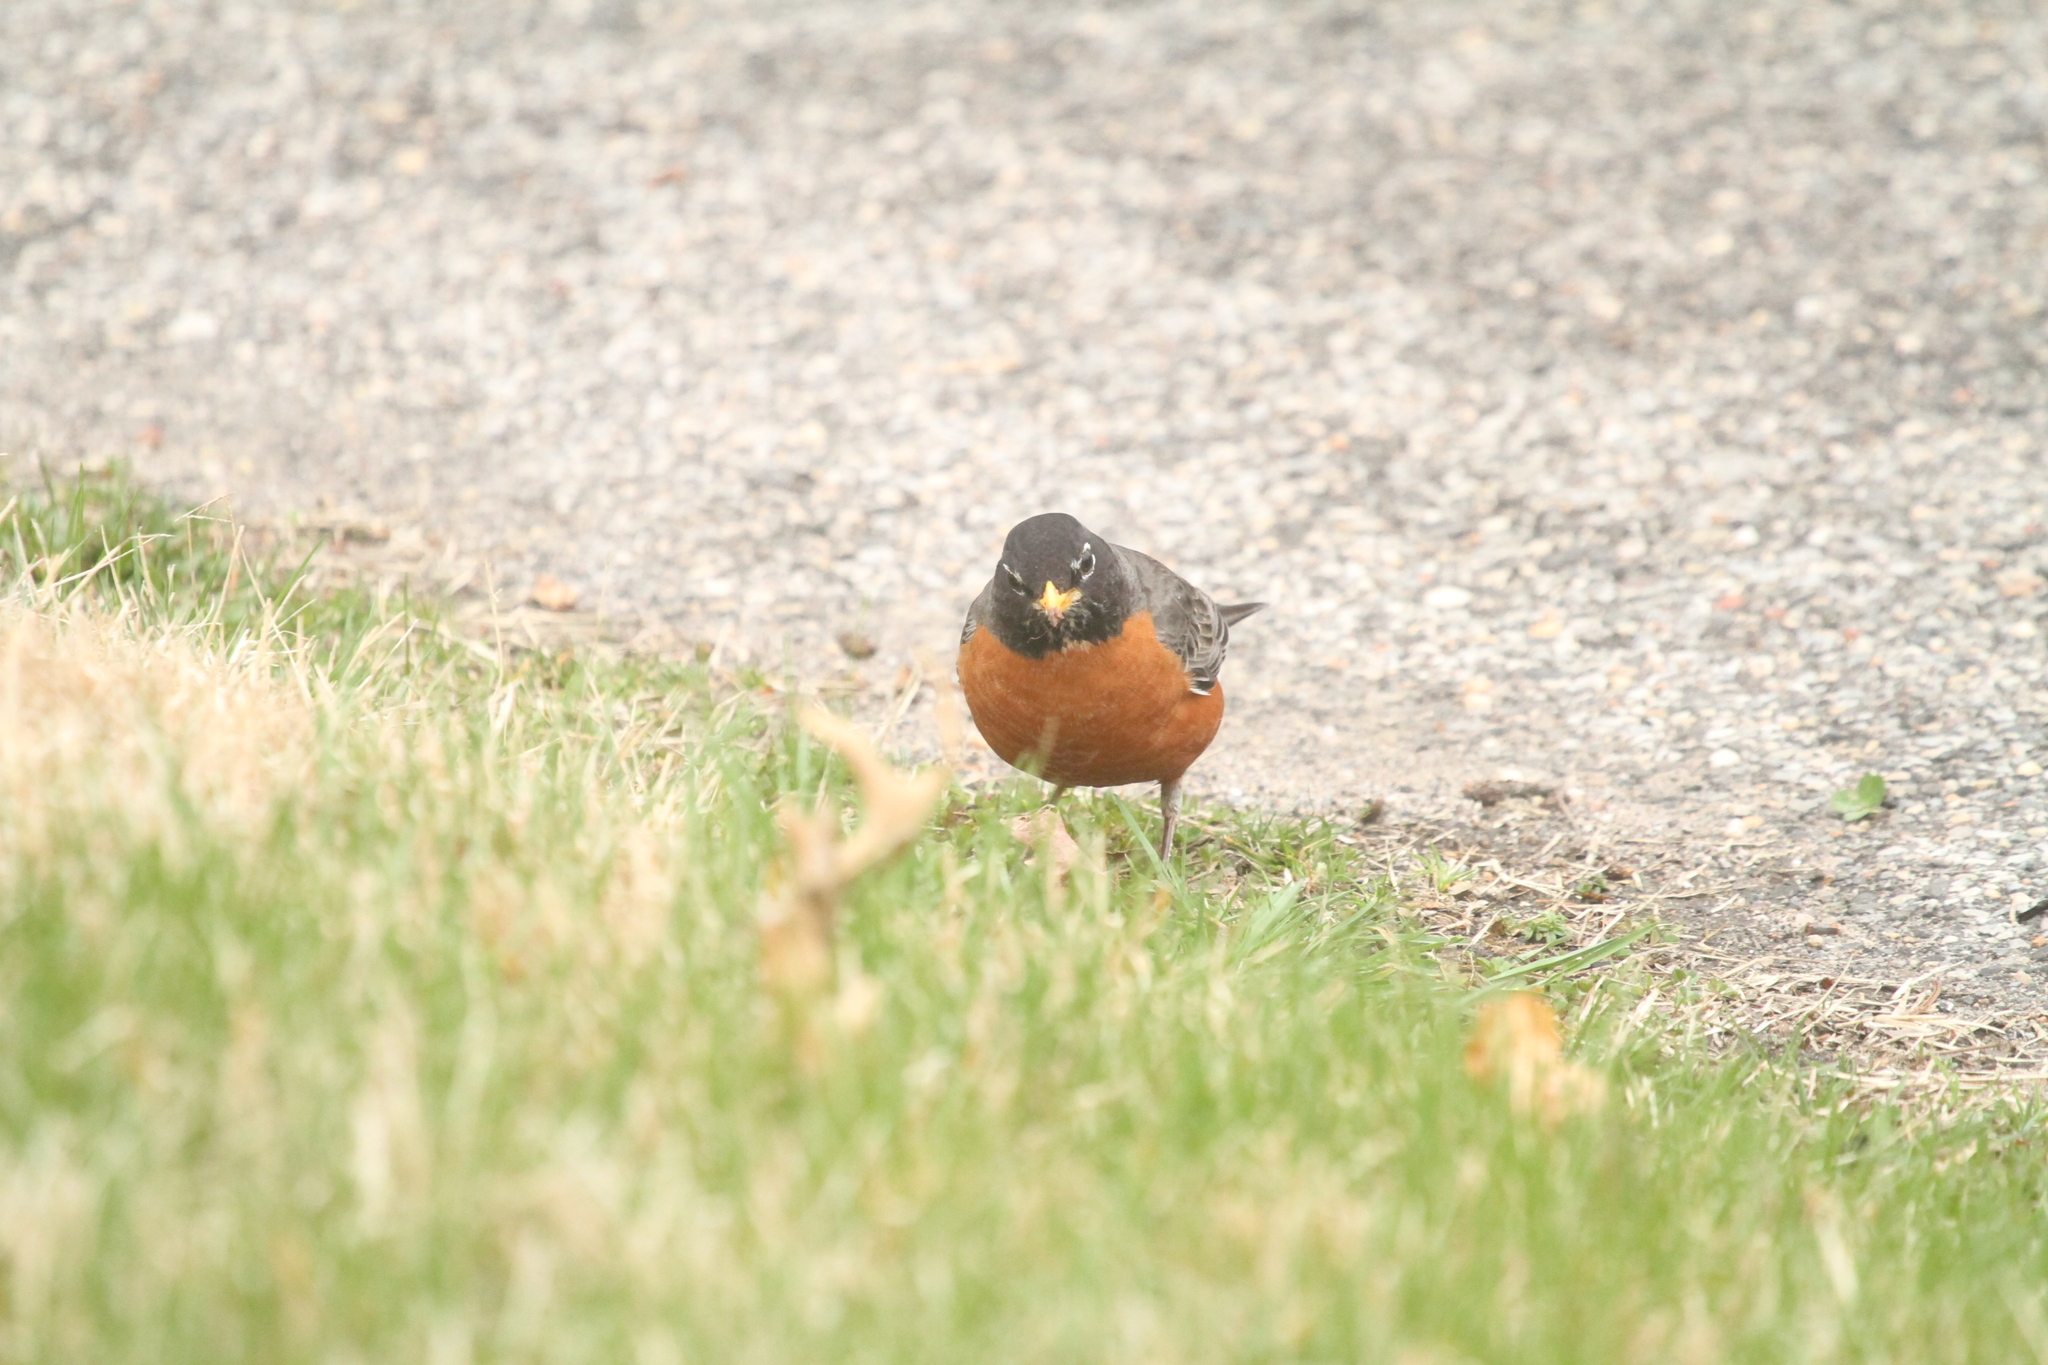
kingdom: Animalia
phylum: Chordata
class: Aves
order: Passeriformes
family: Turdidae
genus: Turdus
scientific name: Turdus migratorius
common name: American robin
